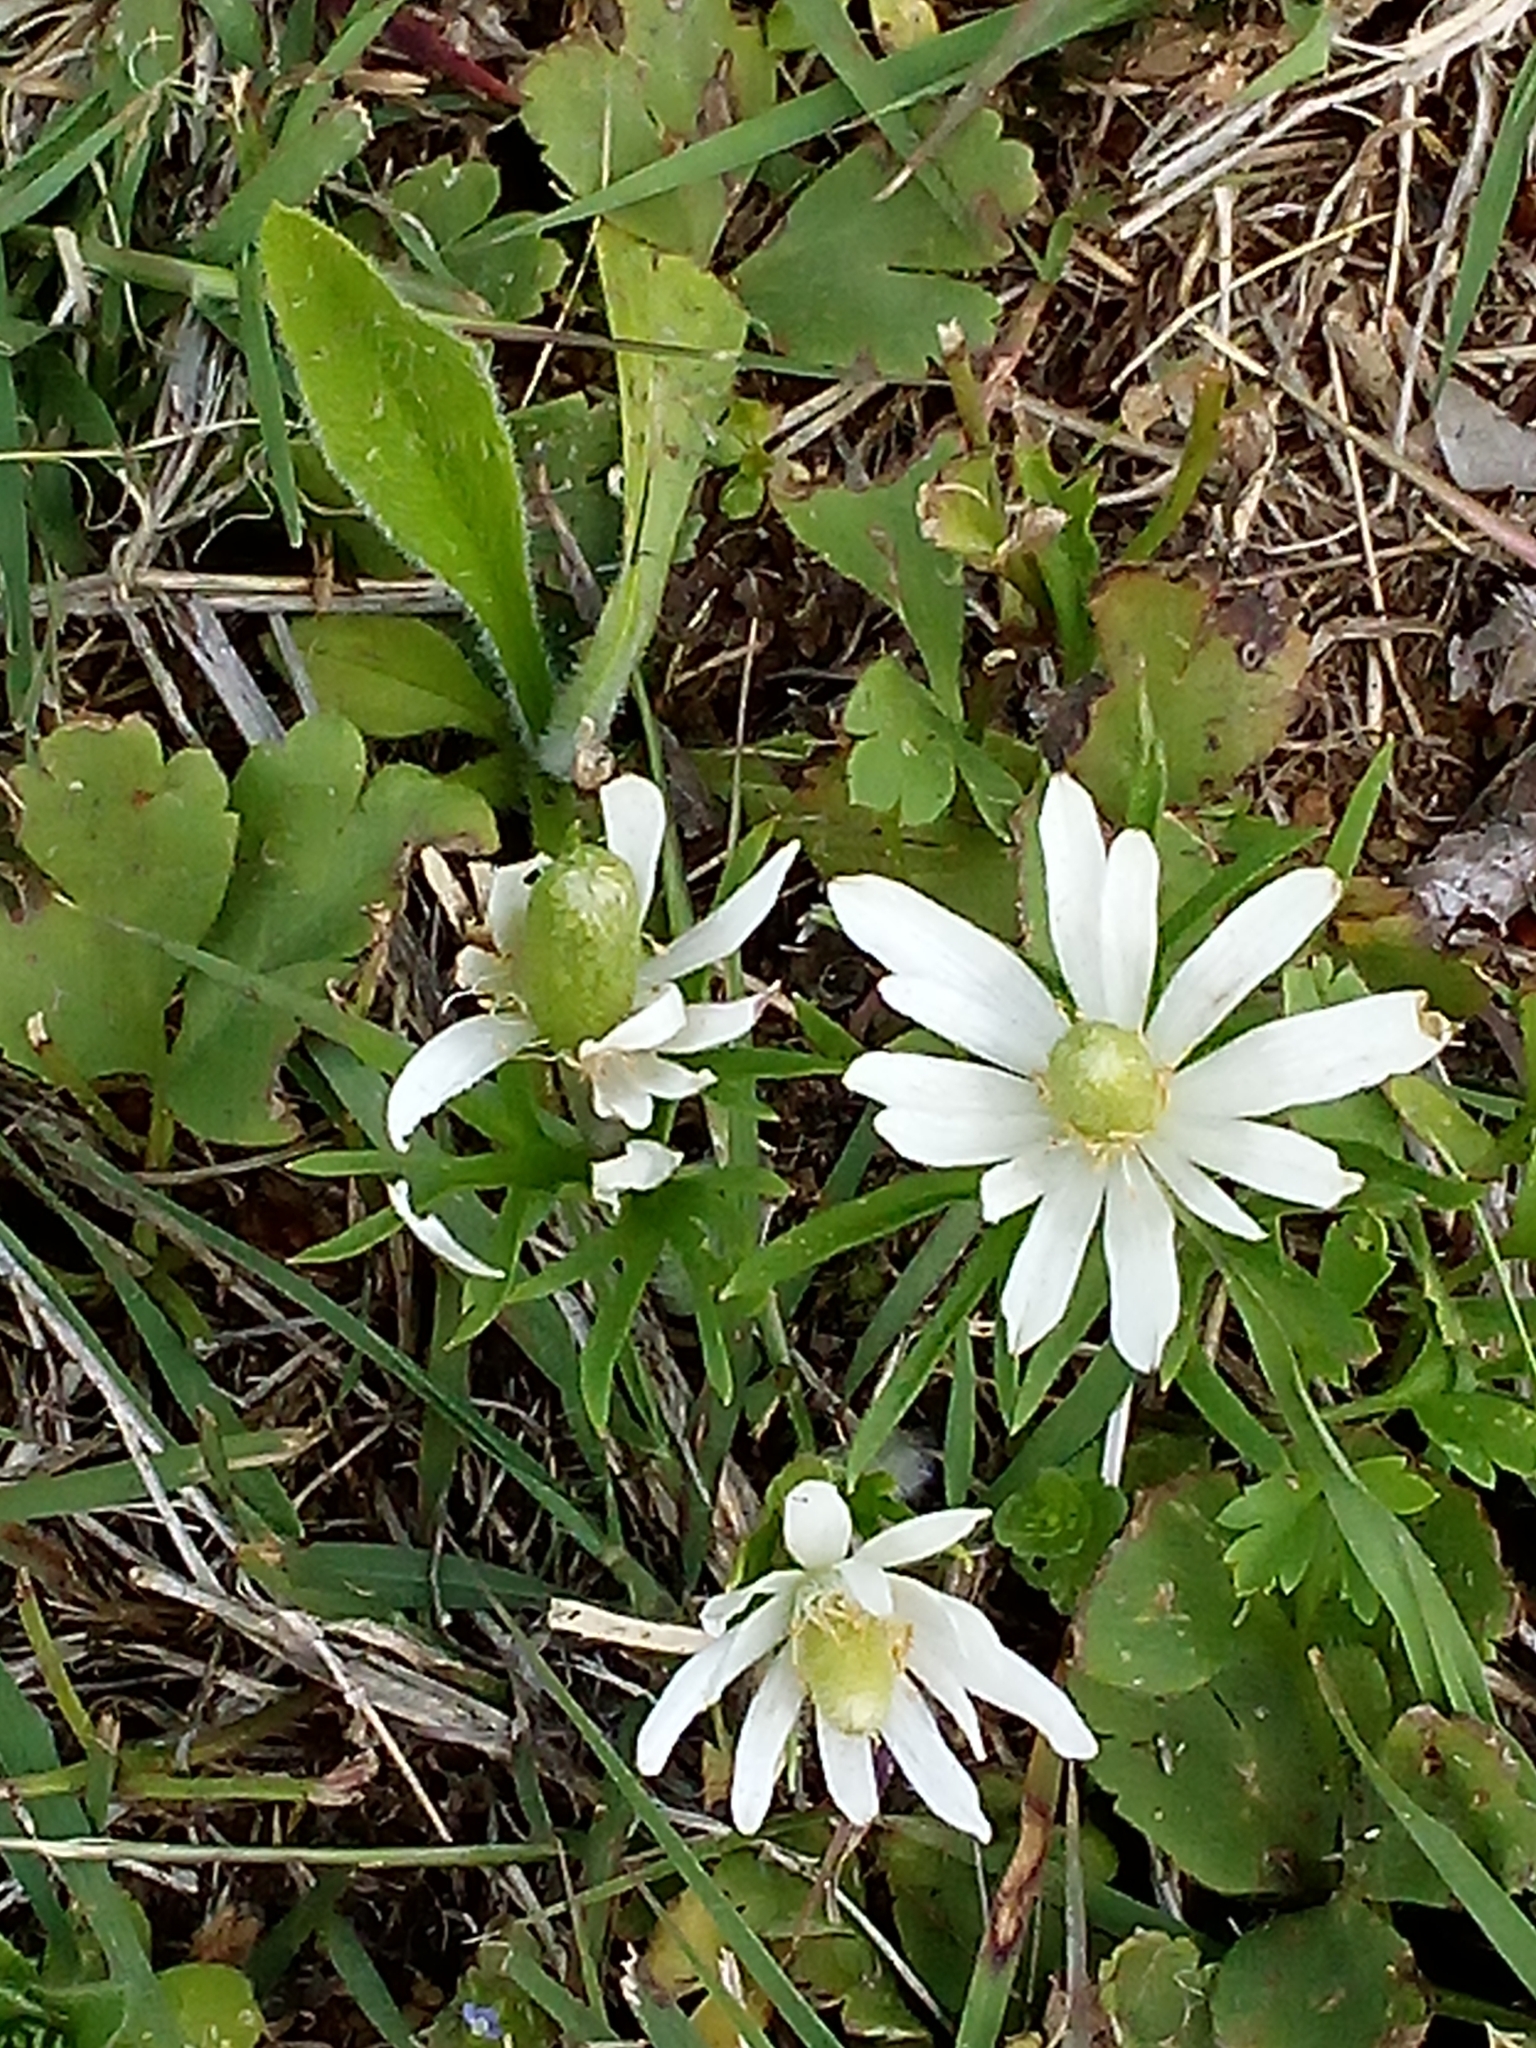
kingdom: Plantae
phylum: Tracheophyta
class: Magnoliopsida
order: Ranunculales
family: Ranunculaceae
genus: Anemone
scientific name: Anemone berlandieri
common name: Ten-petal anemone
